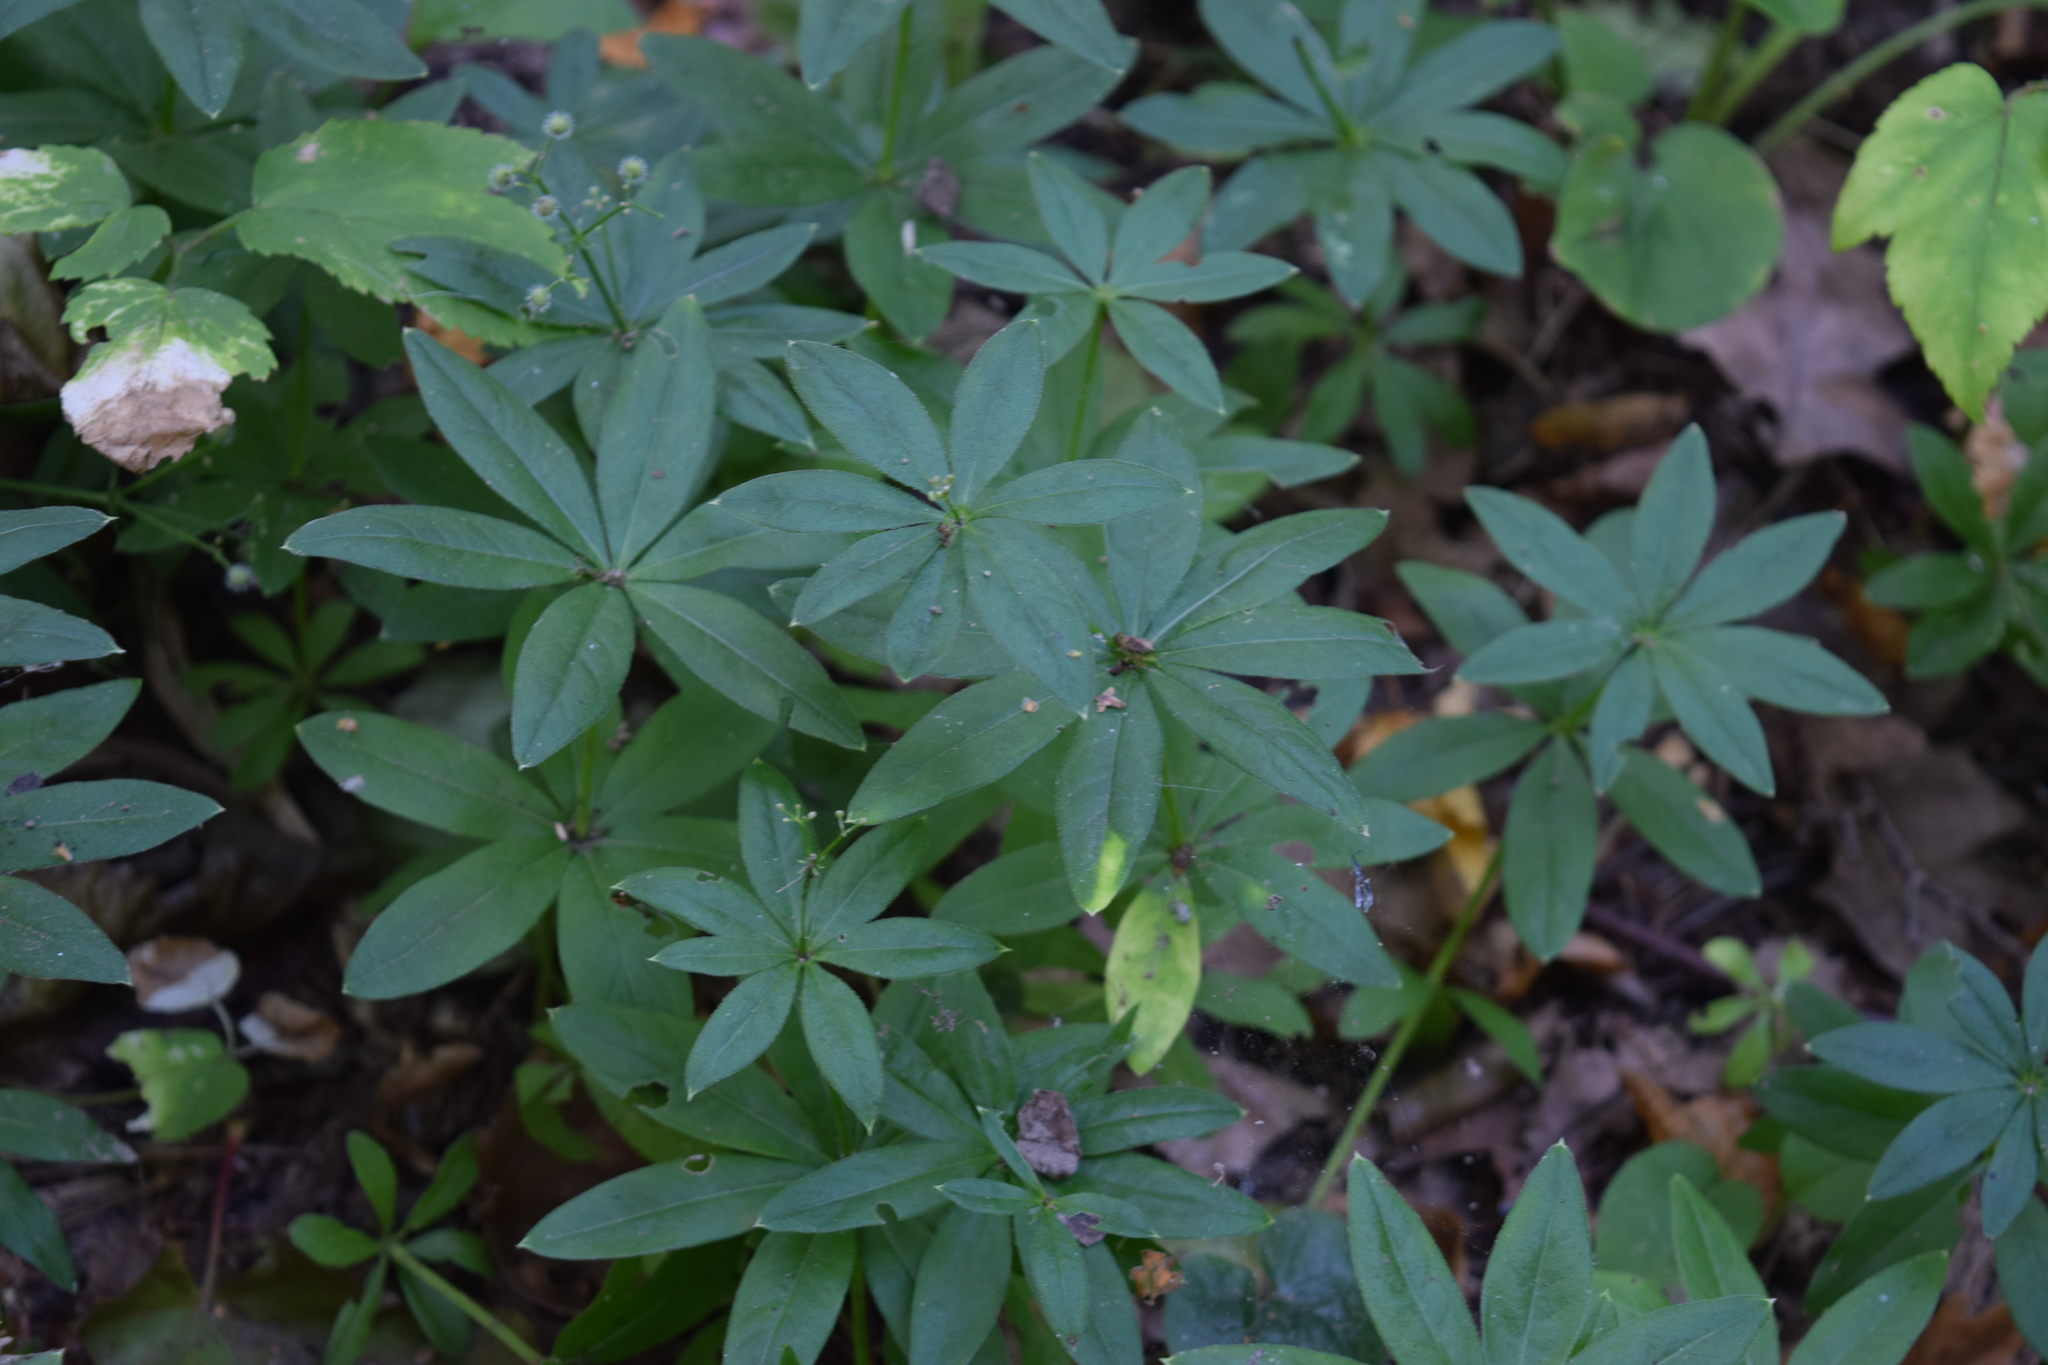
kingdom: Plantae
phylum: Tracheophyta
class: Magnoliopsida
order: Gentianales
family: Rubiaceae
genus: Galium
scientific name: Galium odoratum
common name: Sweet woodruff
